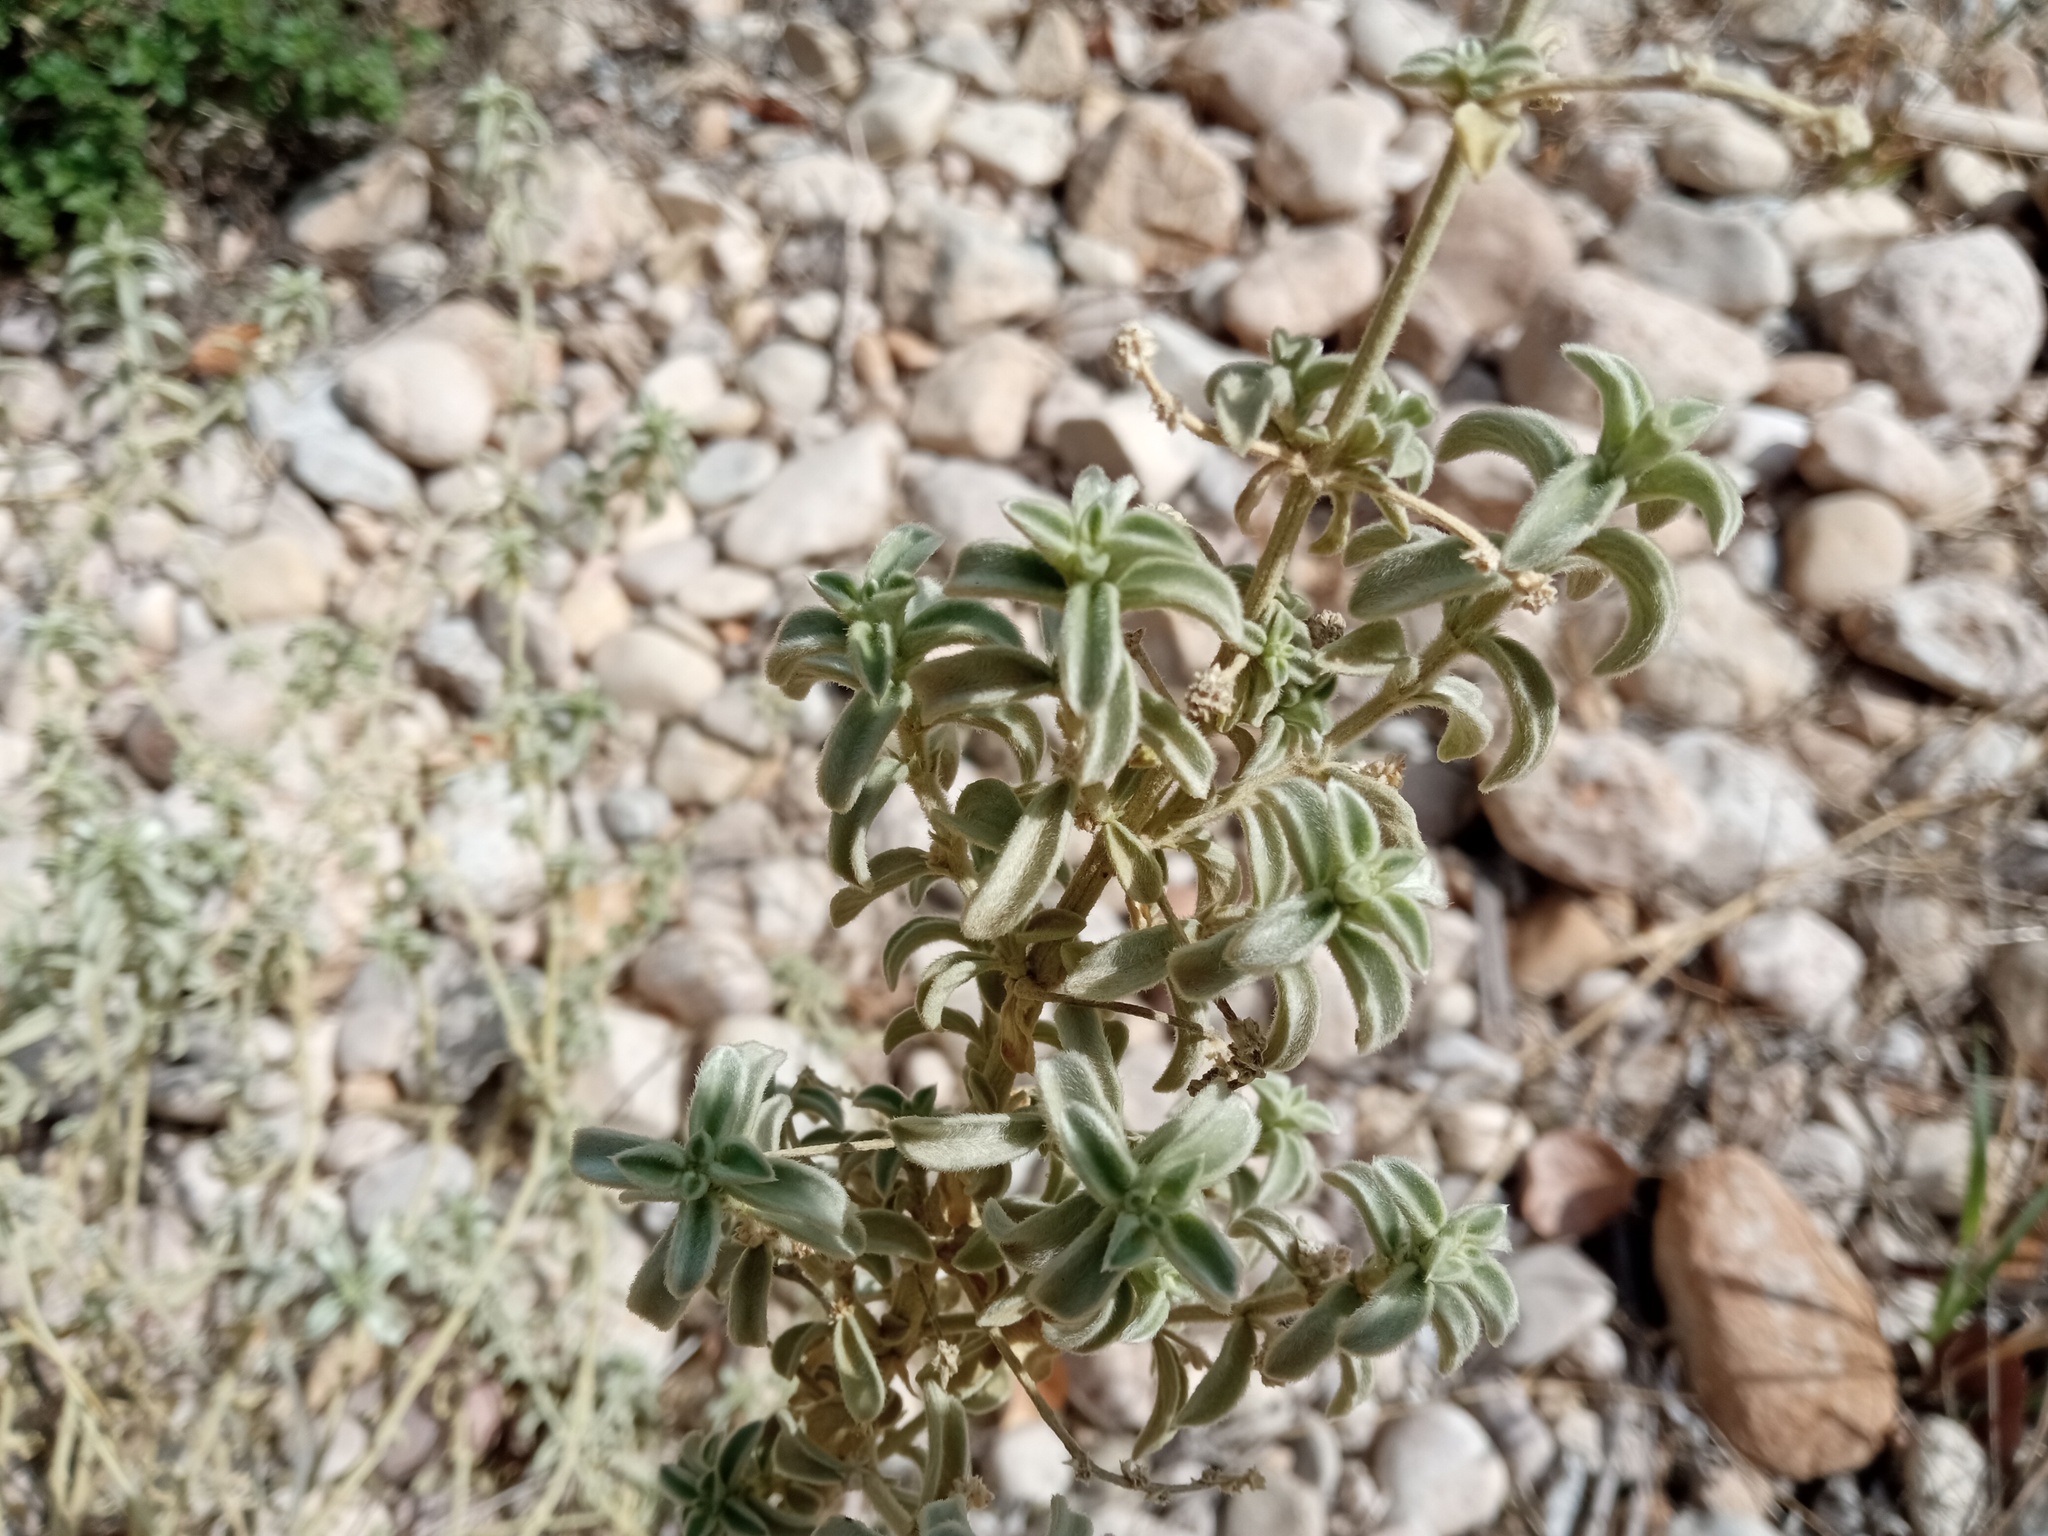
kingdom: Plantae
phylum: Tracheophyta
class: Magnoliopsida
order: Malpighiales
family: Euphorbiaceae
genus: Mercurialis
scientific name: Mercurialis tomentosa
